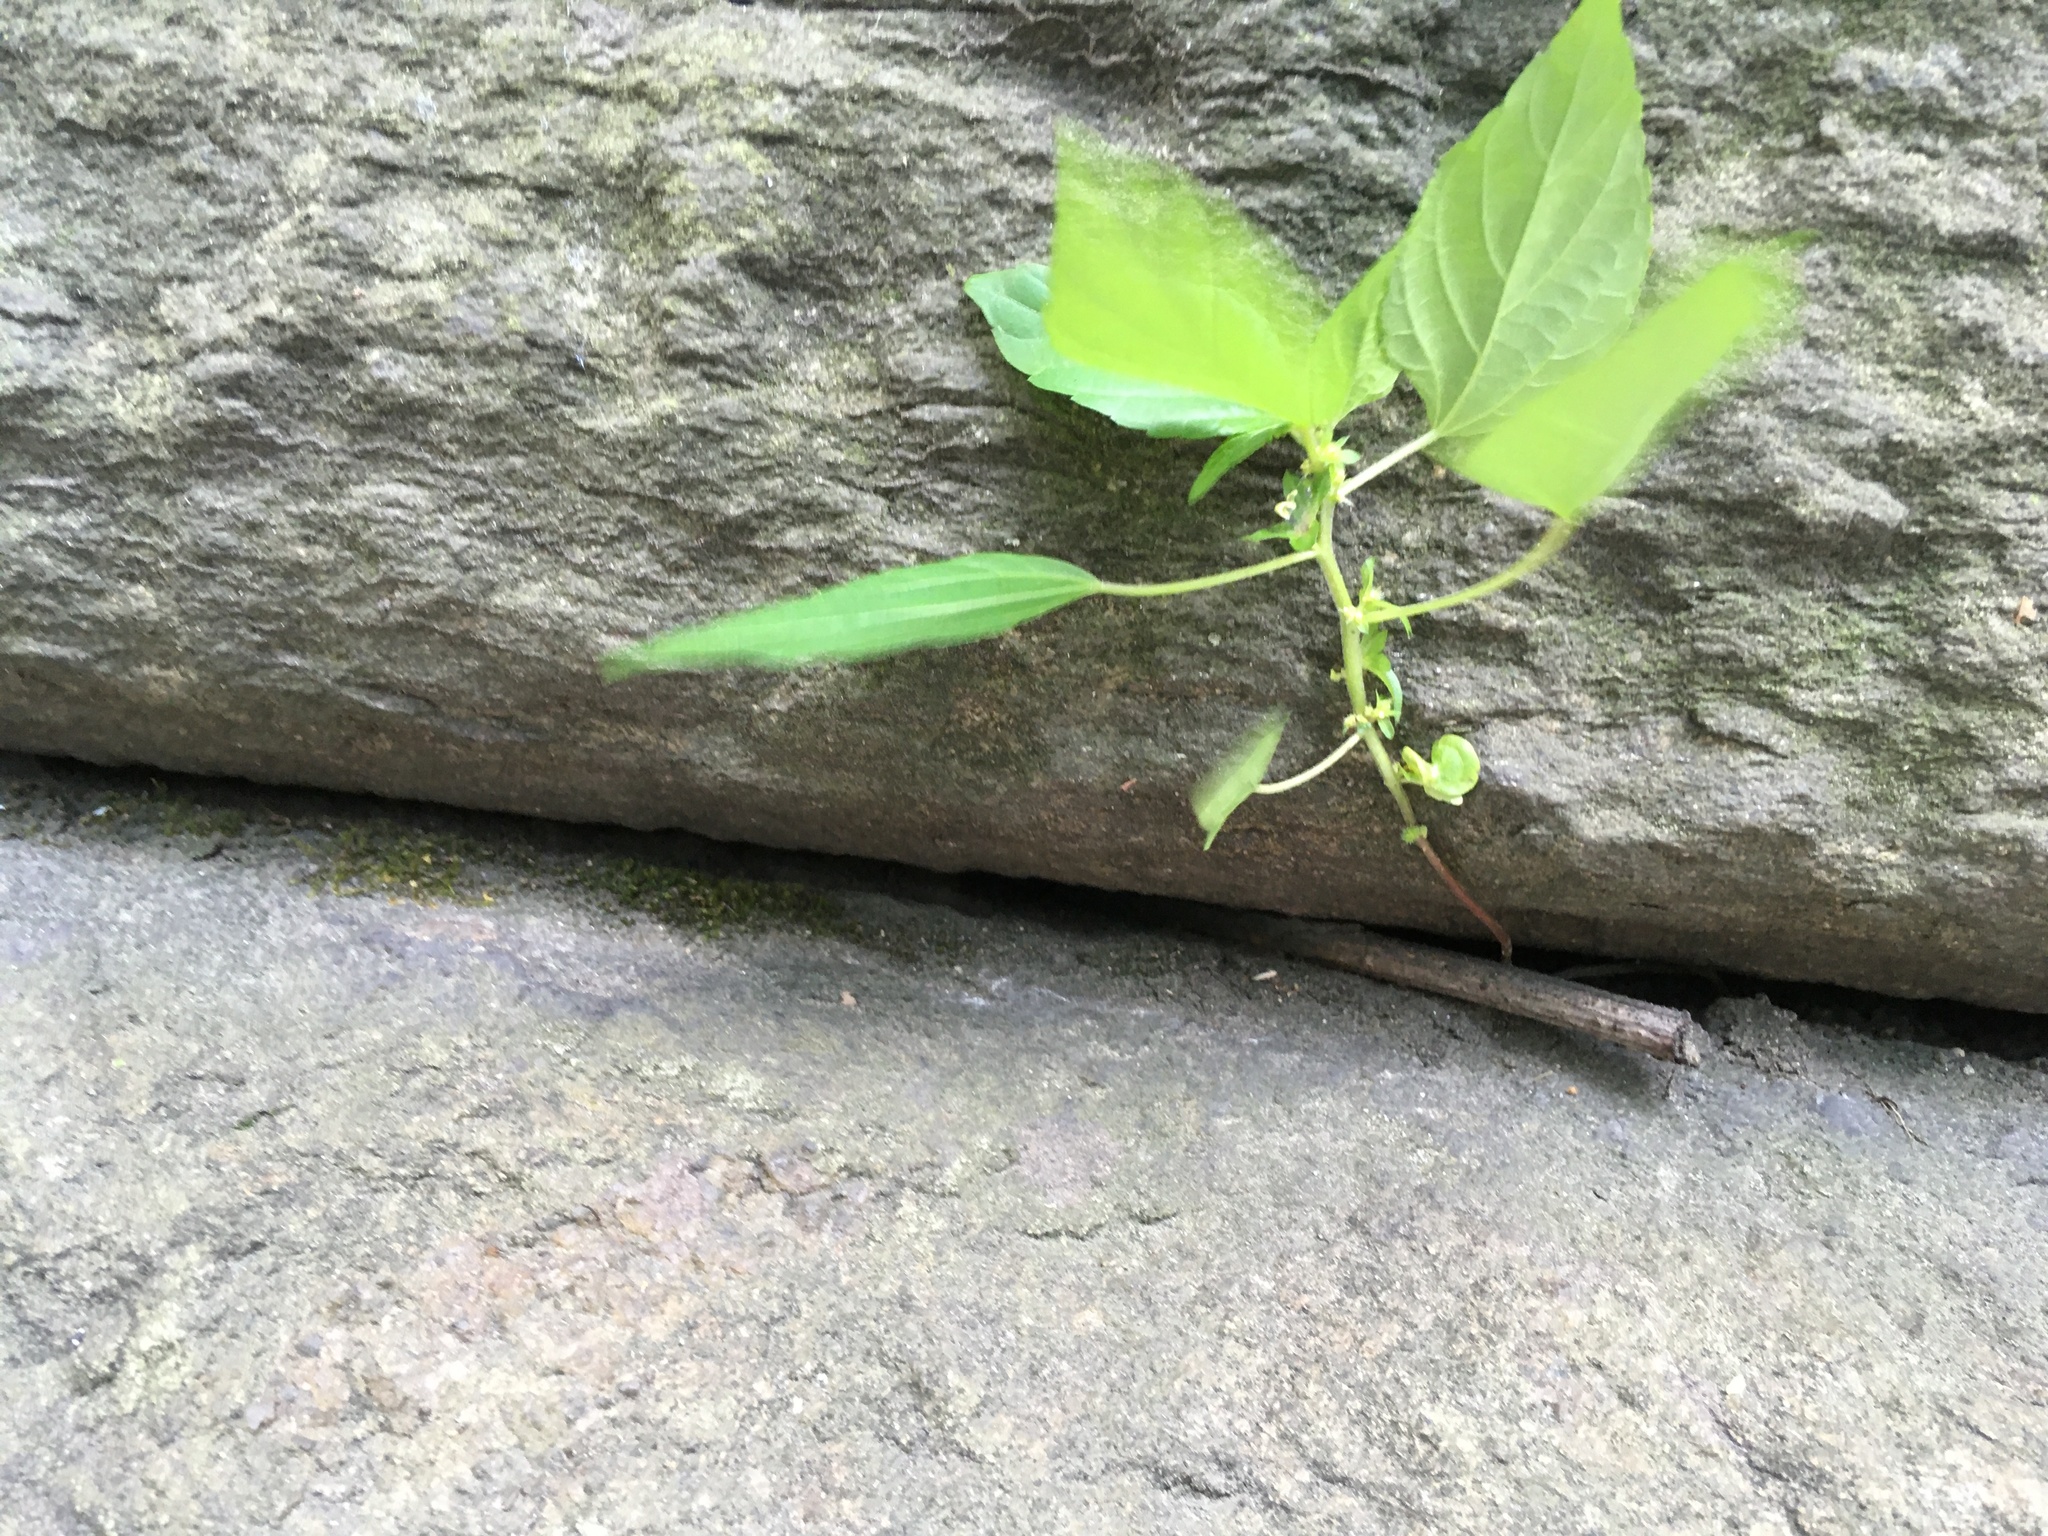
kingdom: Plantae
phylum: Tracheophyta
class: Magnoliopsida
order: Malpighiales
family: Euphorbiaceae
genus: Acalypha
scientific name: Acalypha rhomboidea
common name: Rhombic copperleaf
